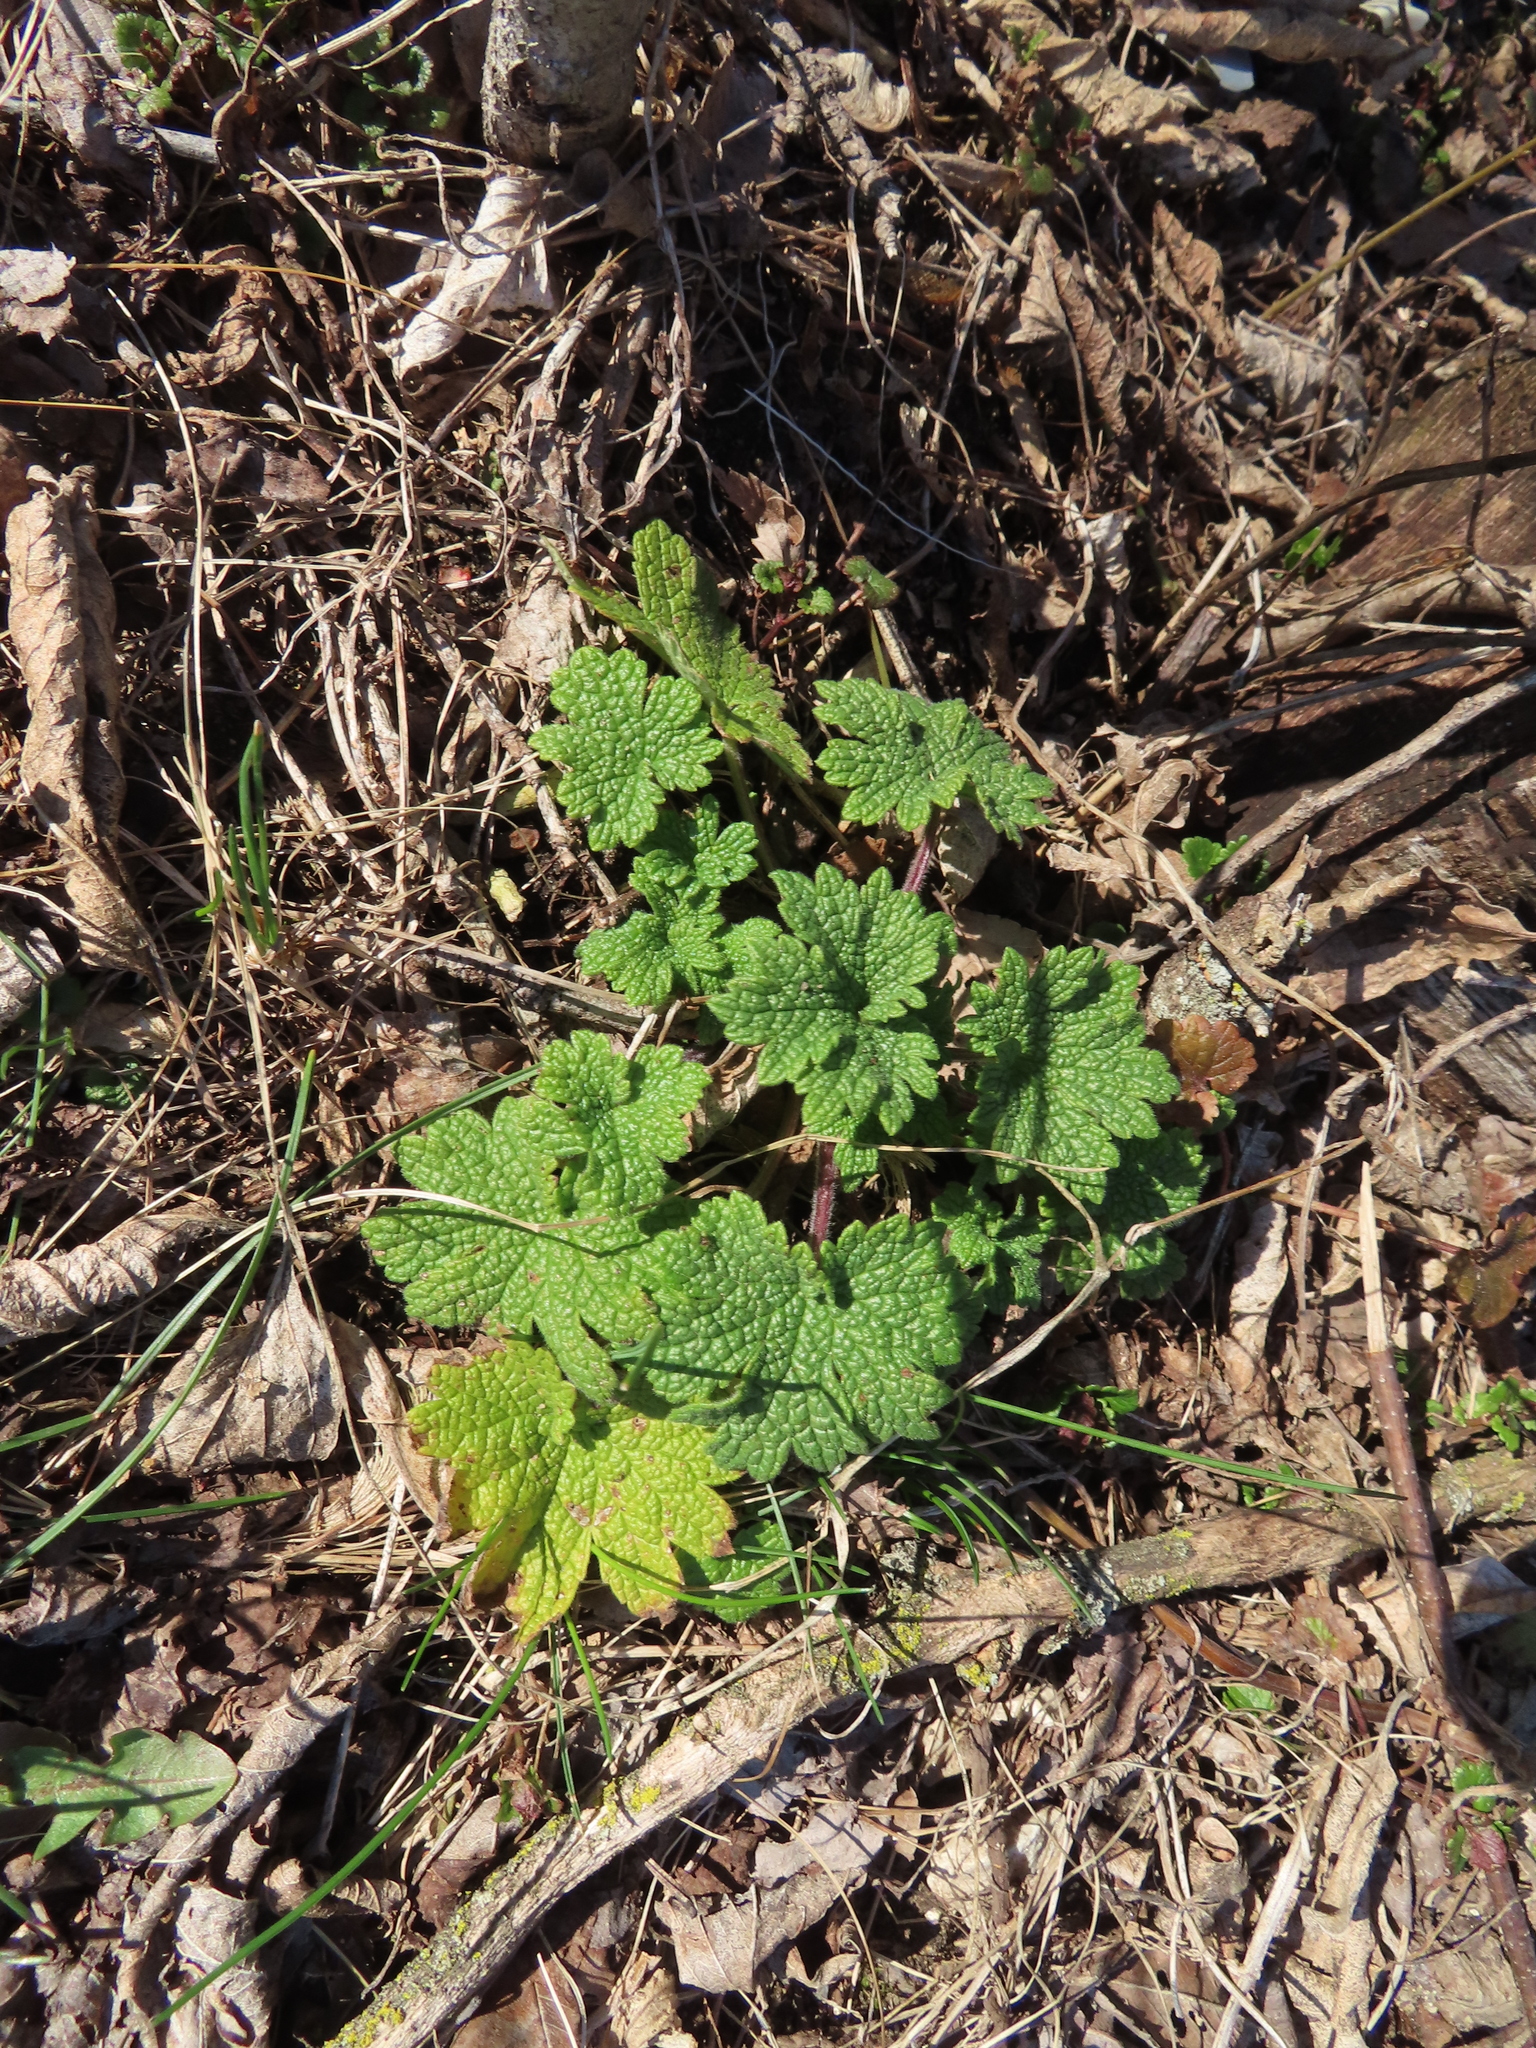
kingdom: Plantae
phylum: Tracheophyta
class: Magnoliopsida
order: Lamiales
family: Lamiaceae
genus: Leonurus
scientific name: Leonurus cardiaca
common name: Motherwort
